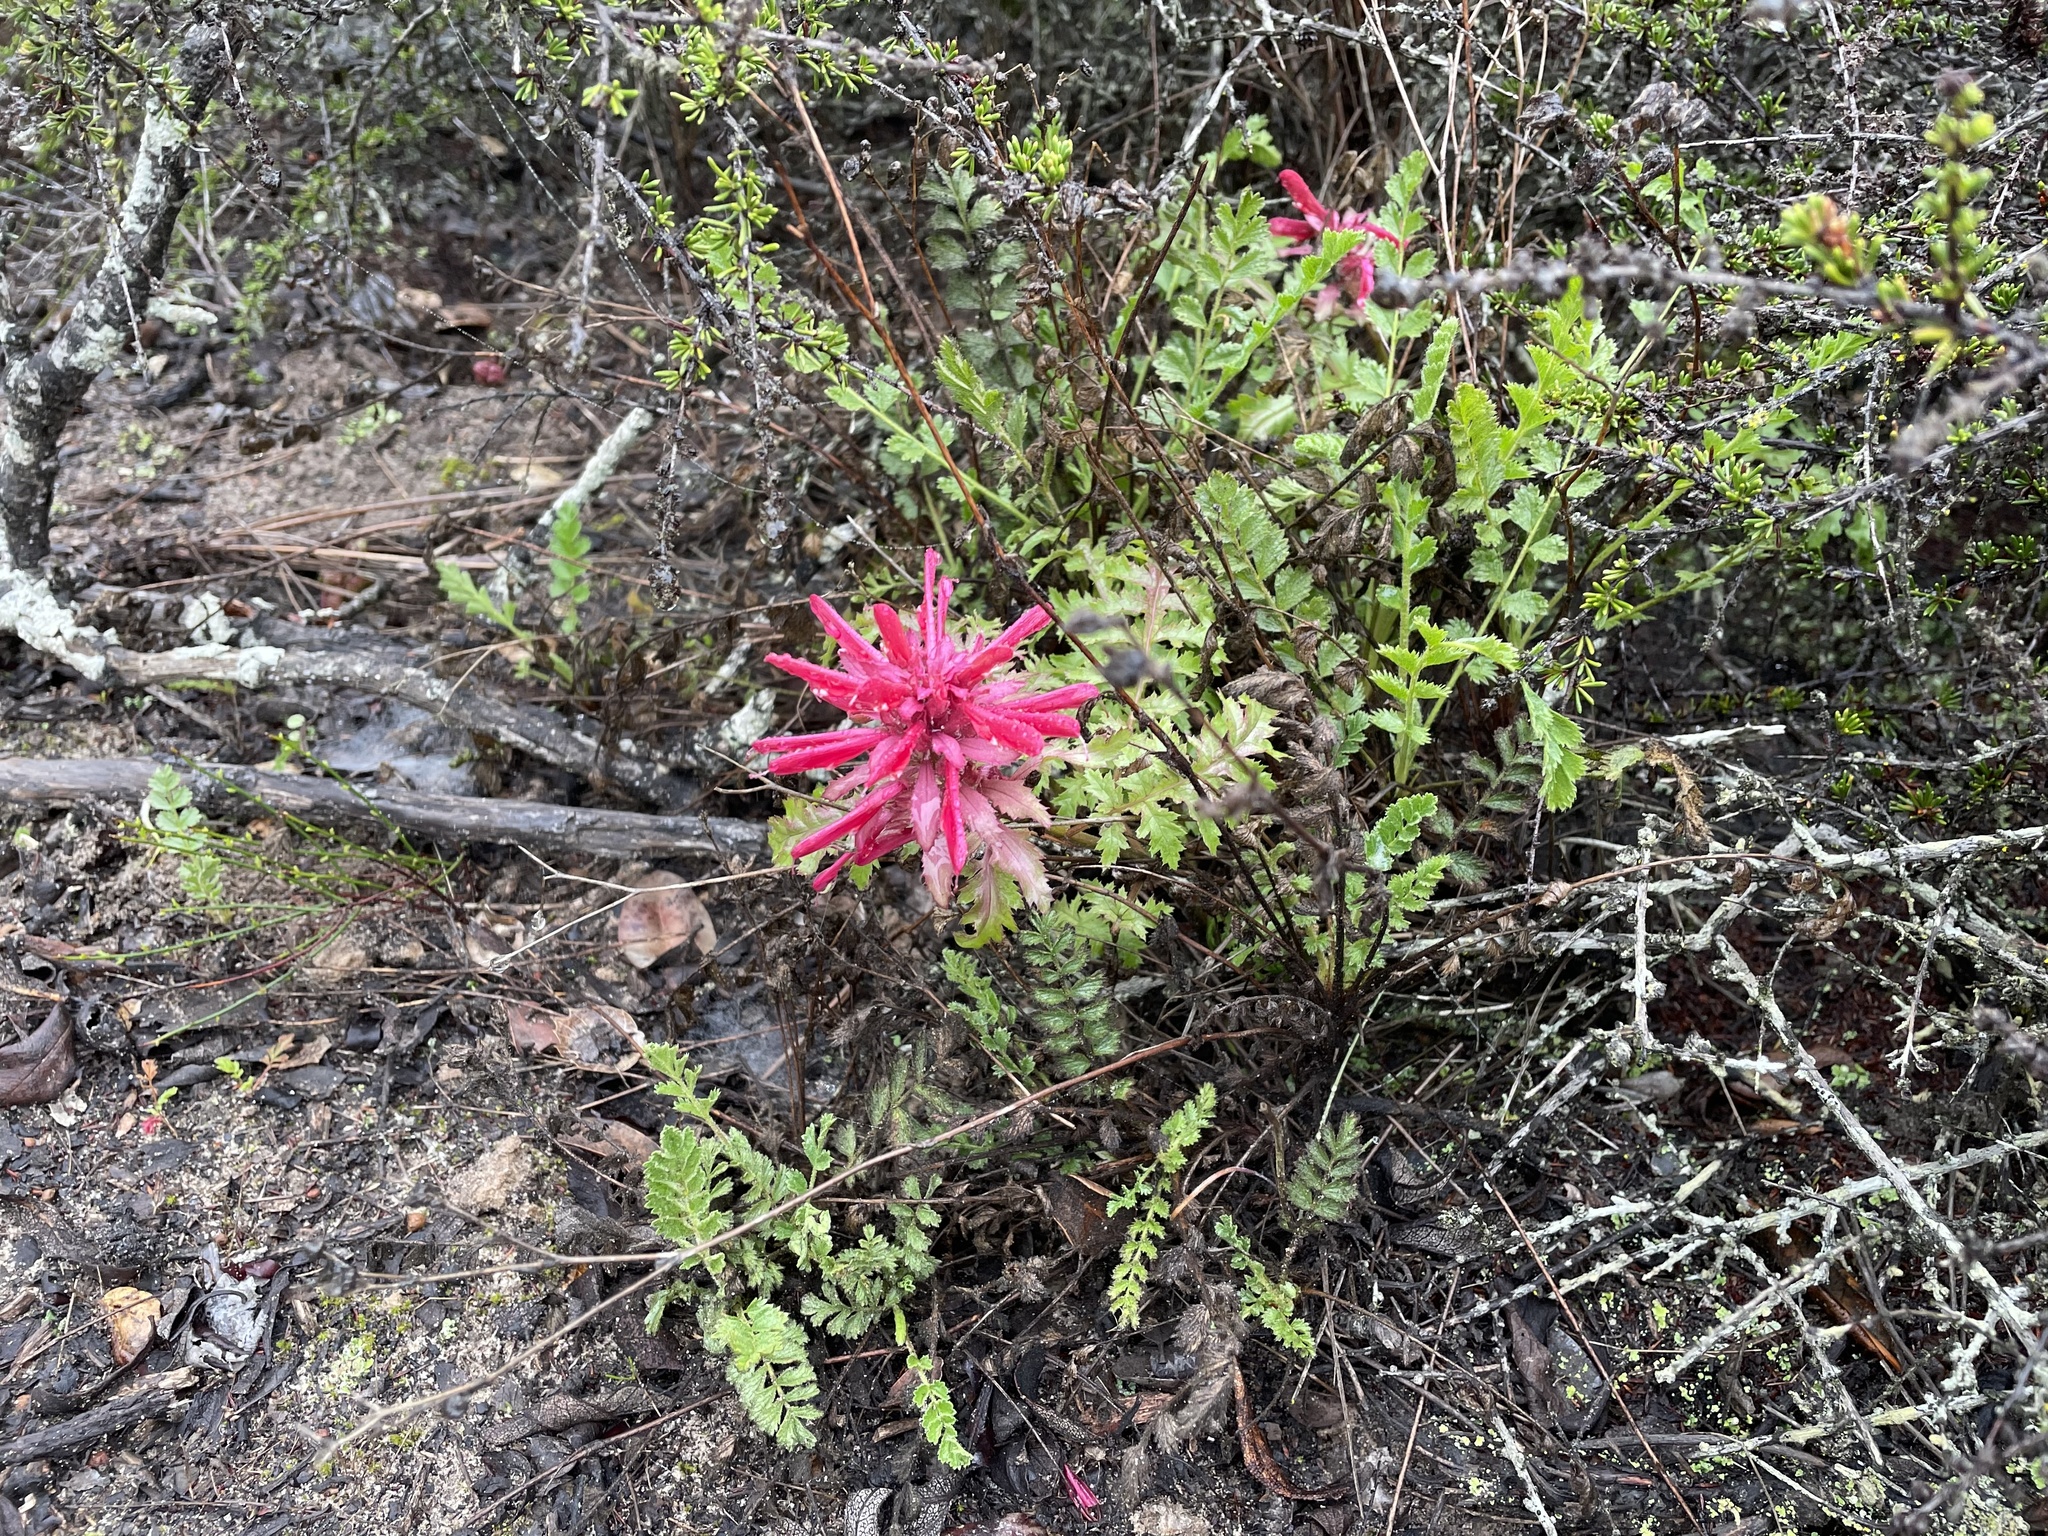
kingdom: Plantae
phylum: Tracheophyta
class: Magnoliopsida
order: Lamiales
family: Orobanchaceae
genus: Pedicularis
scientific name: Pedicularis densiflora
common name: Indian warrior
